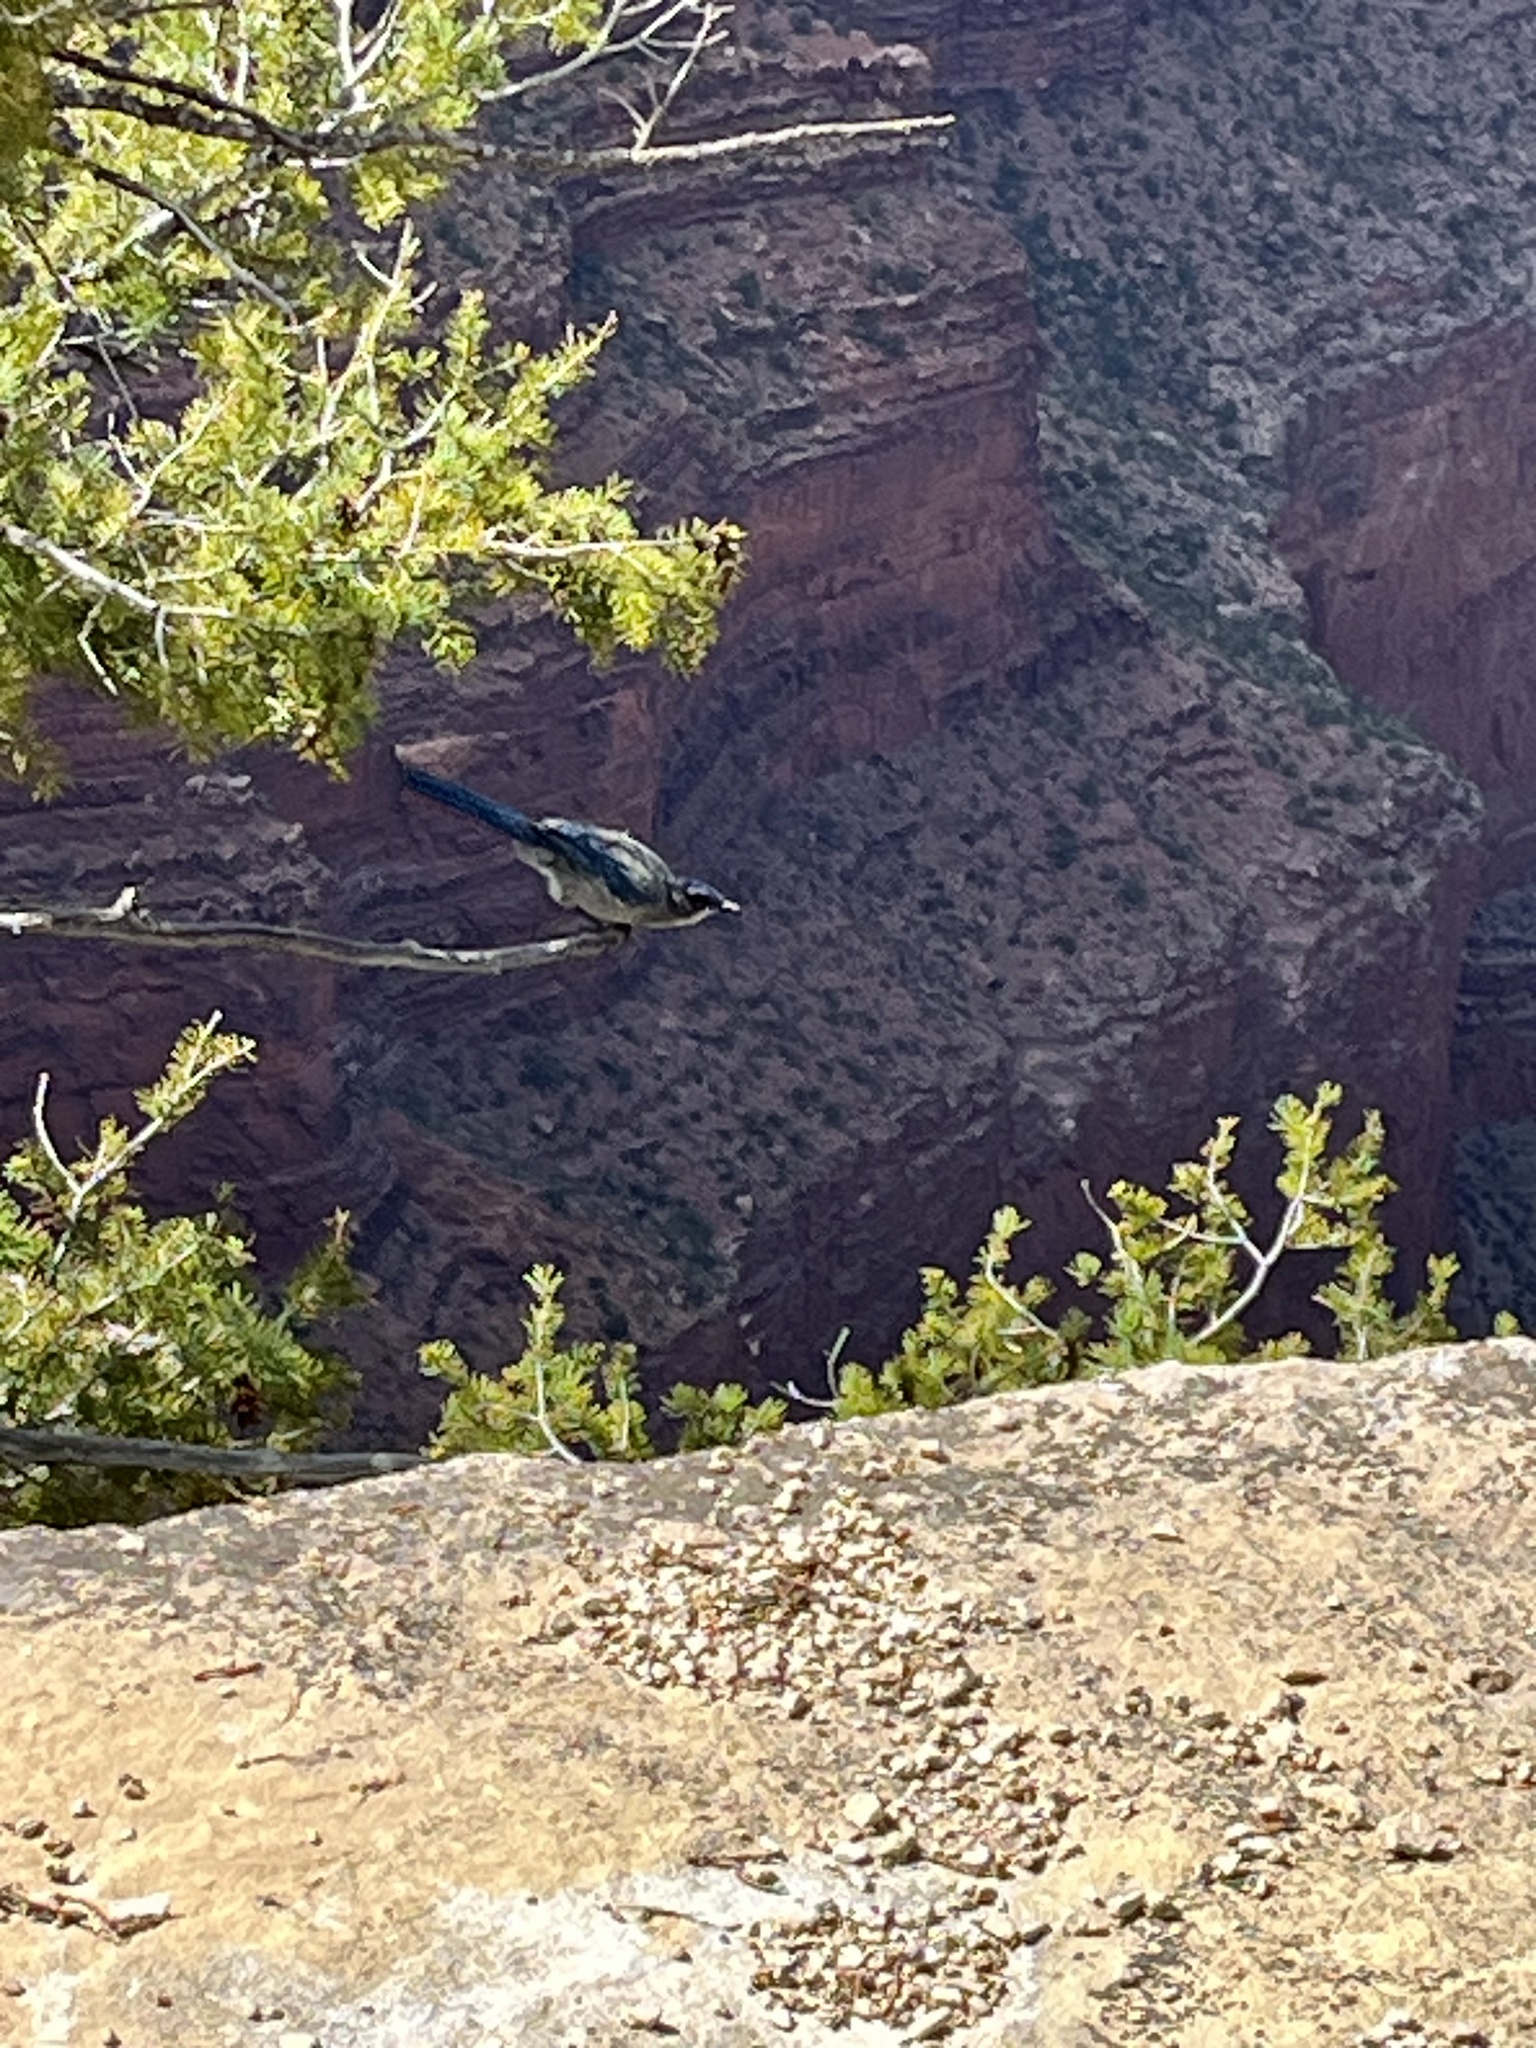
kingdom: Animalia
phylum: Chordata
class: Aves
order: Passeriformes
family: Corvidae
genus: Aphelocoma
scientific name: Aphelocoma woodhouseii
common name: Woodhouse's scrub-jay
